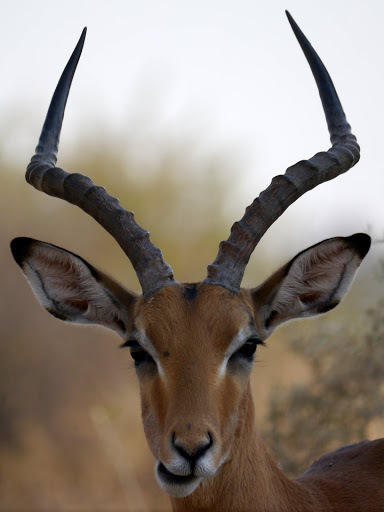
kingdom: Animalia
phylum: Chordata
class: Mammalia
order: Artiodactyla
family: Bovidae
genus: Aepyceros
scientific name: Aepyceros melampus
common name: Impala
